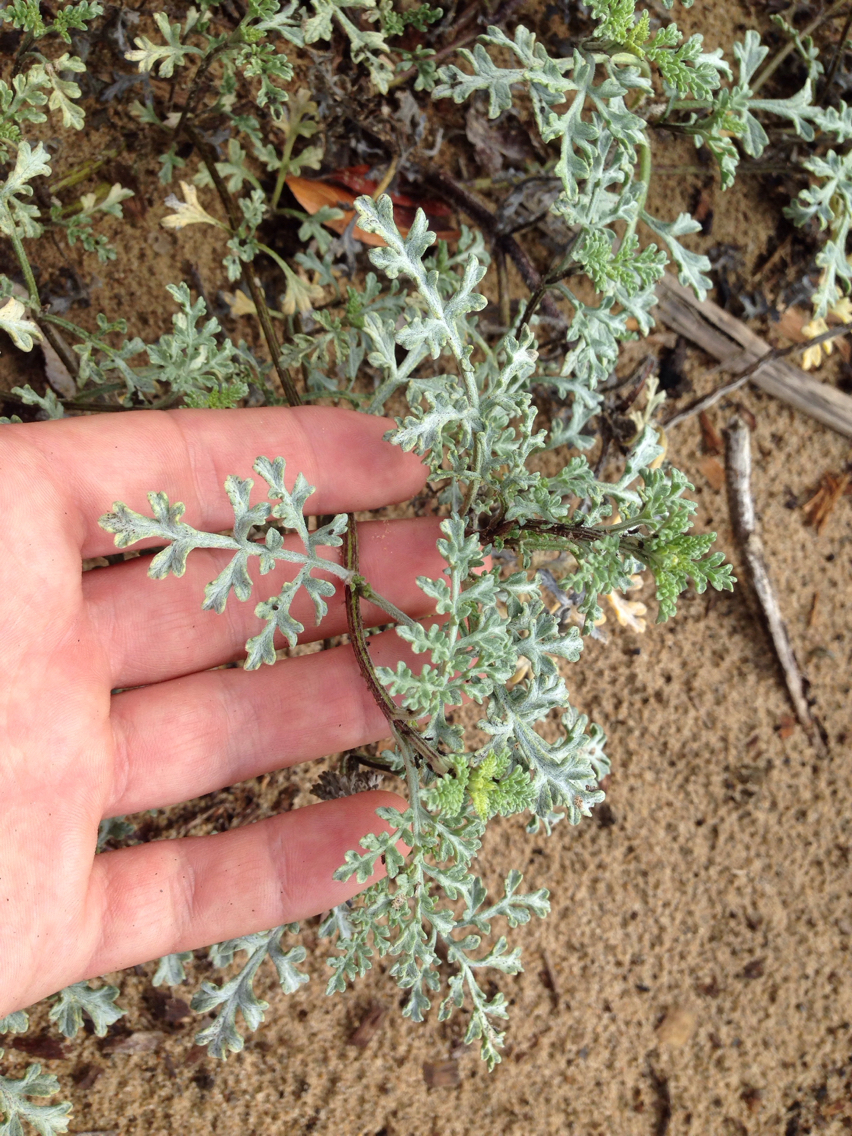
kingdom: Plantae
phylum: Tracheophyta
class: Magnoliopsida
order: Asterales
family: Asteraceae
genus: Ambrosia
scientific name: Ambrosia chamissonis
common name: Beachbur
